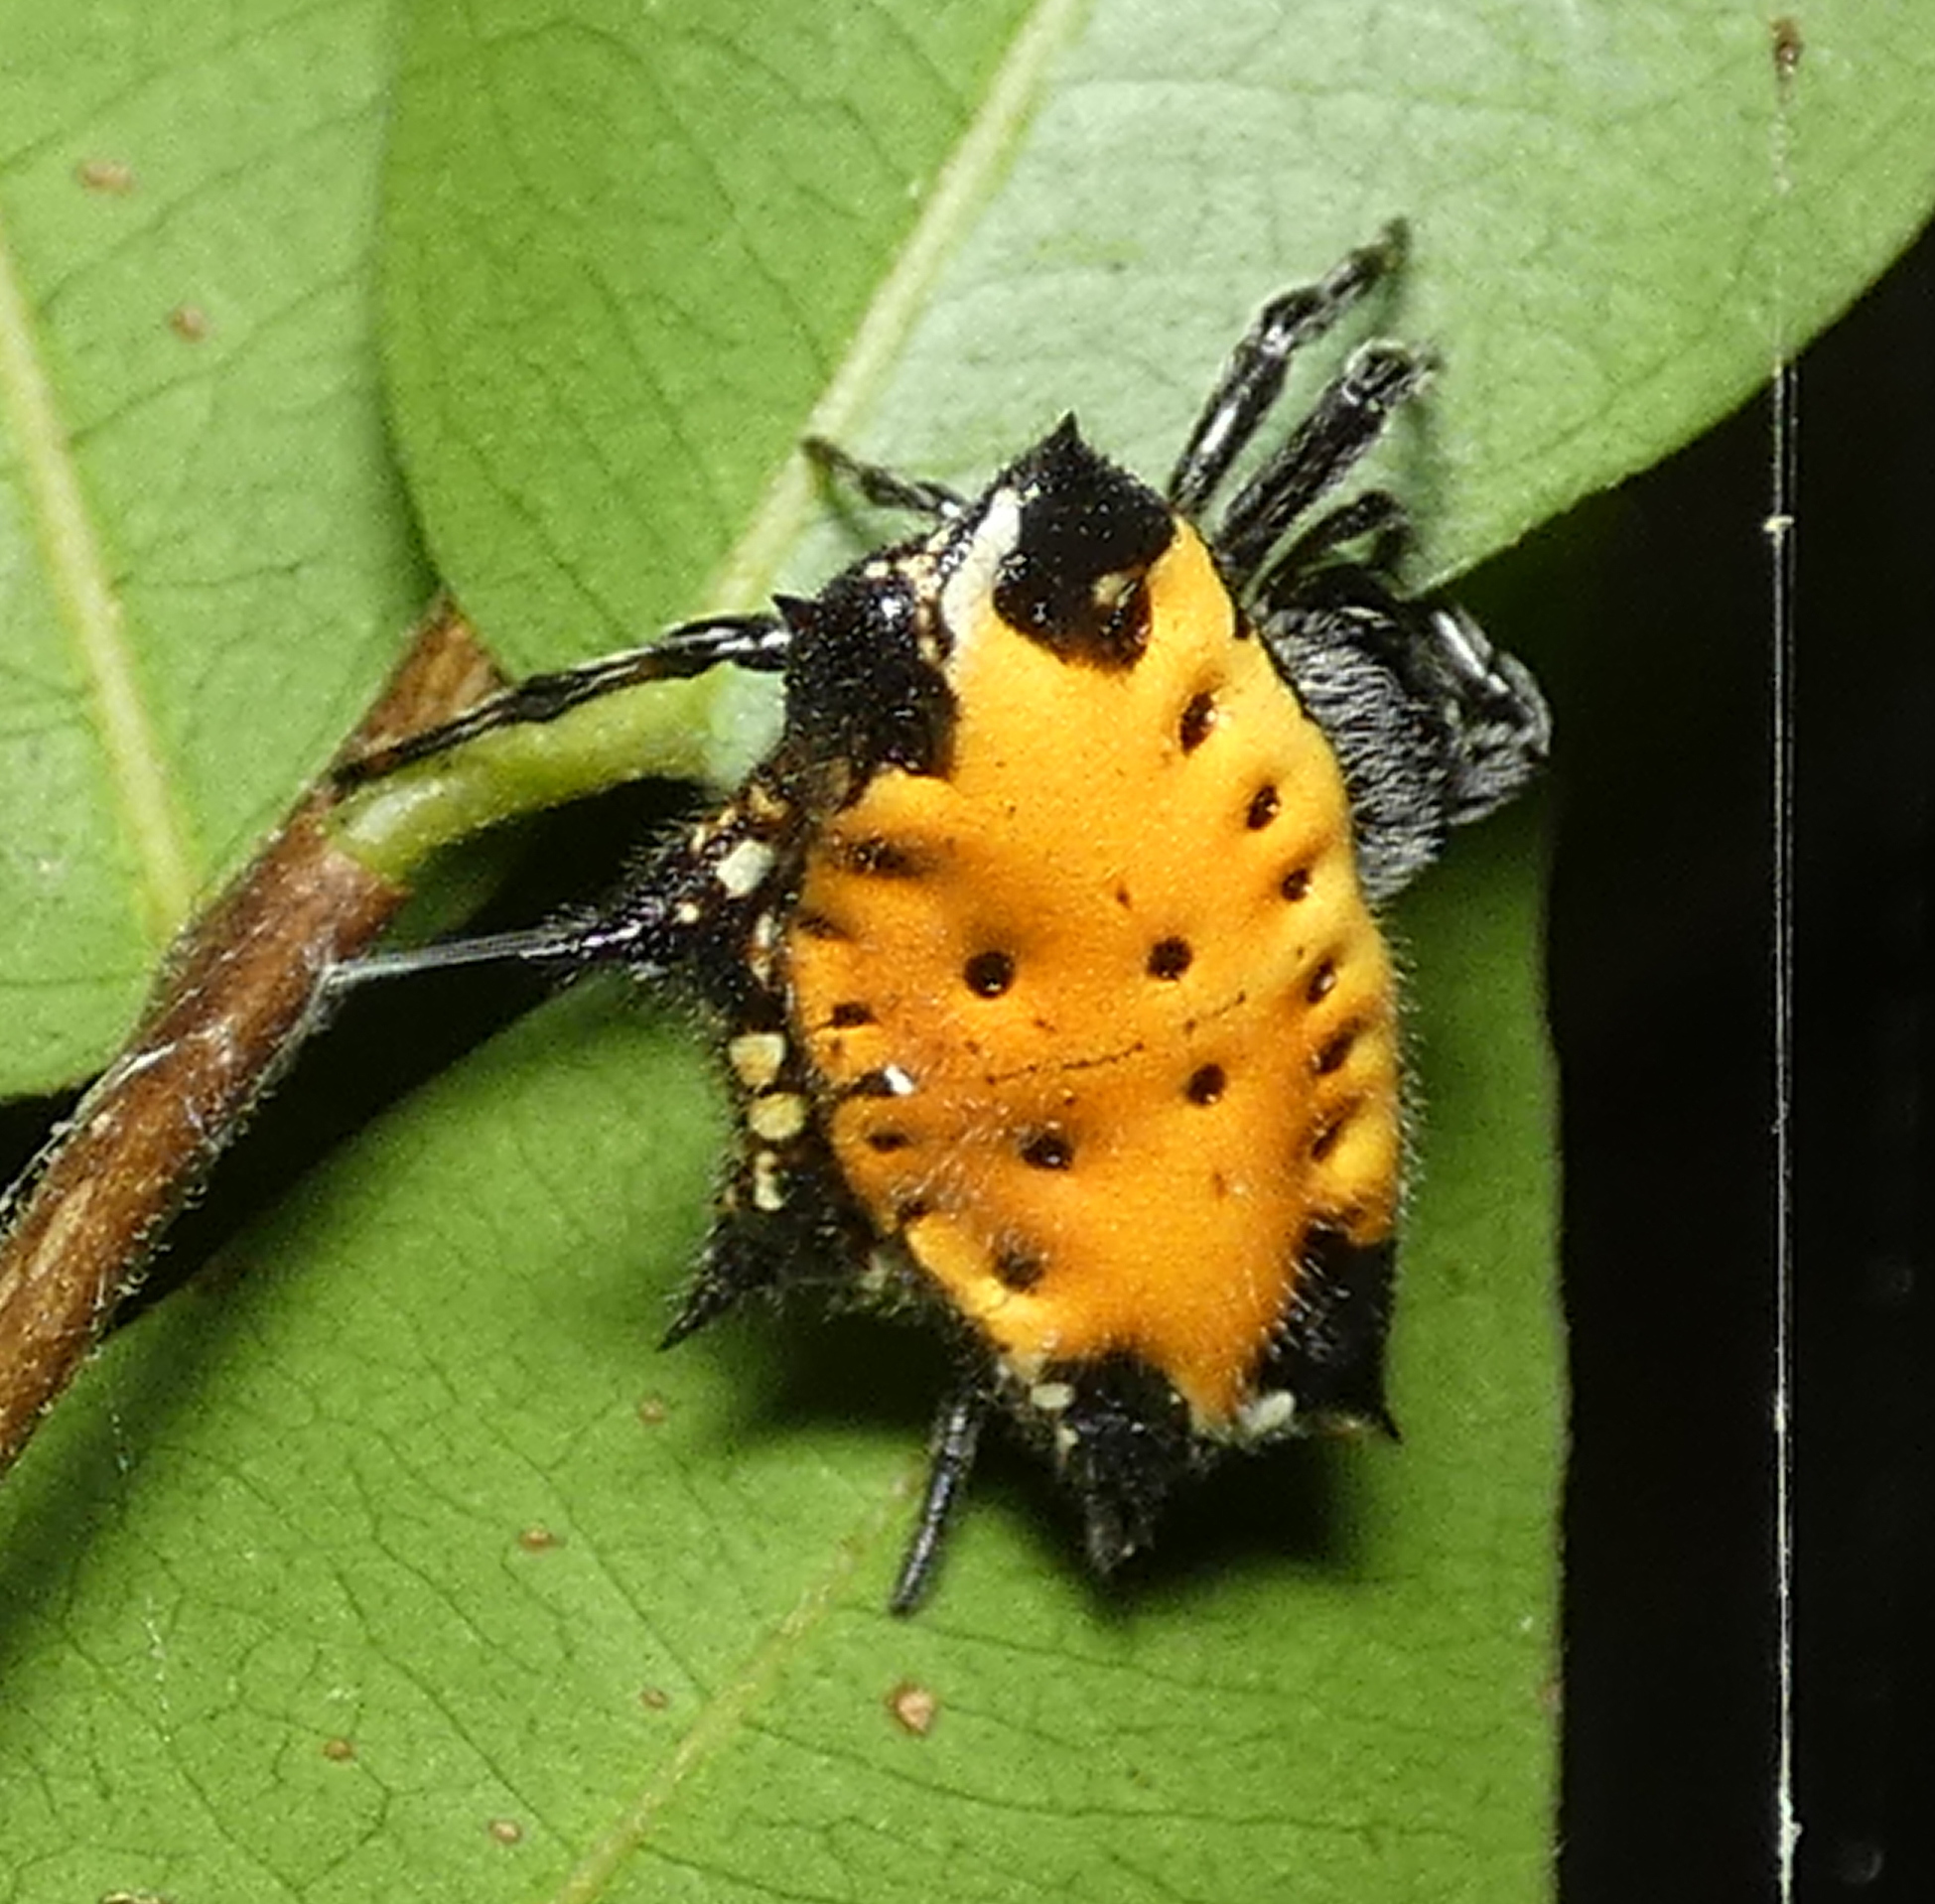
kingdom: Animalia
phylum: Arthropoda
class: Arachnida
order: Araneae
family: Araneidae
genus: Gasteracantha
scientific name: Gasteracantha cancriformis
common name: Orb weavers
